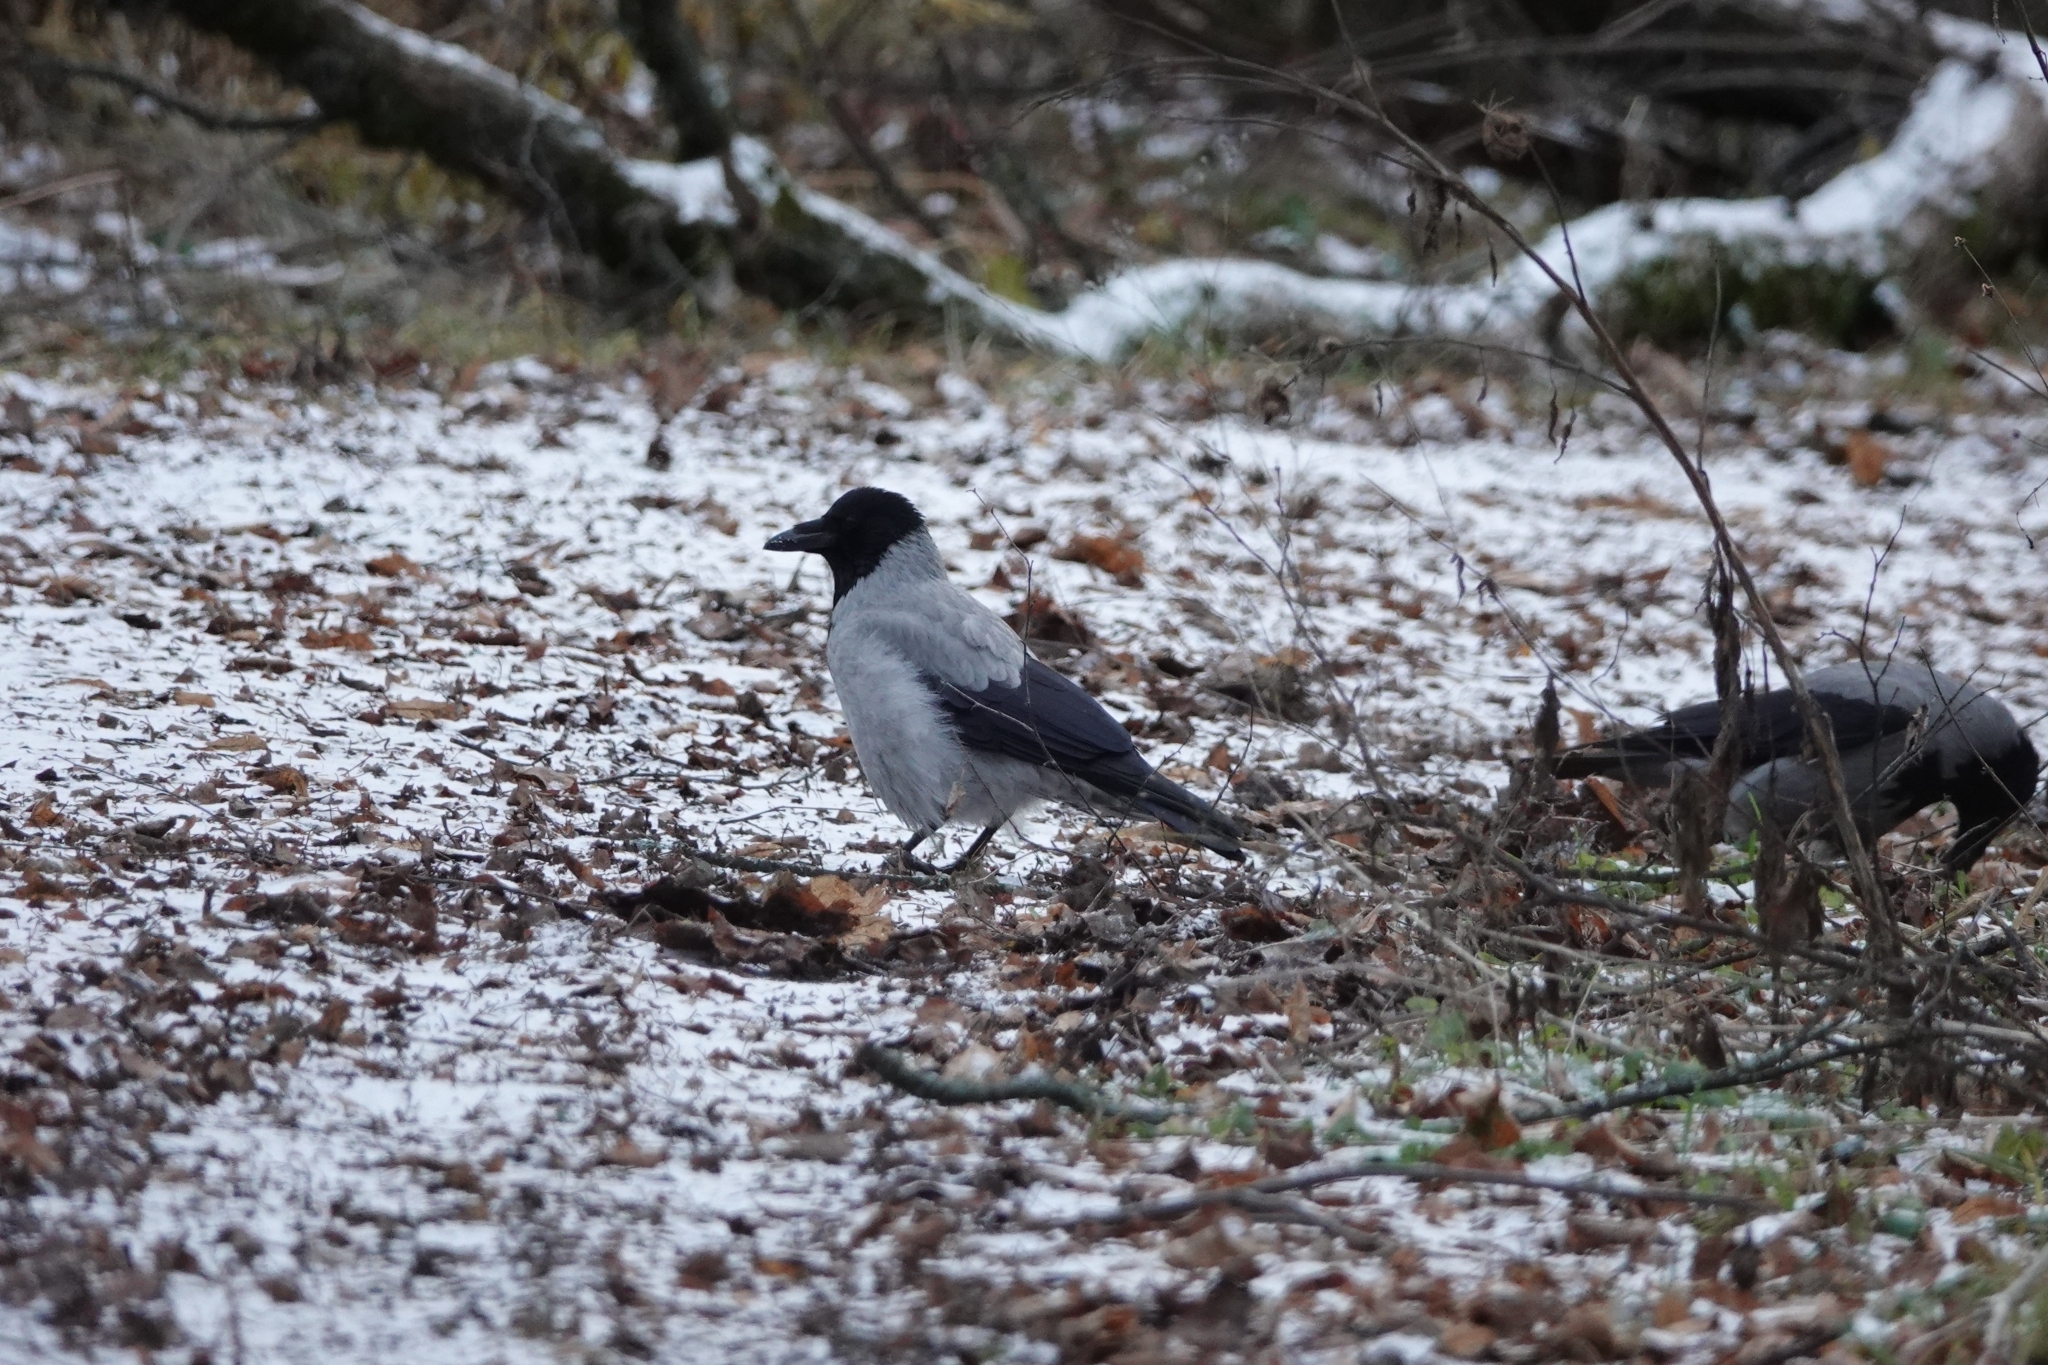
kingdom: Animalia
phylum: Chordata
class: Aves
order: Passeriformes
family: Corvidae
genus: Corvus
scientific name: Corvus cornix
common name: Hooded crow
